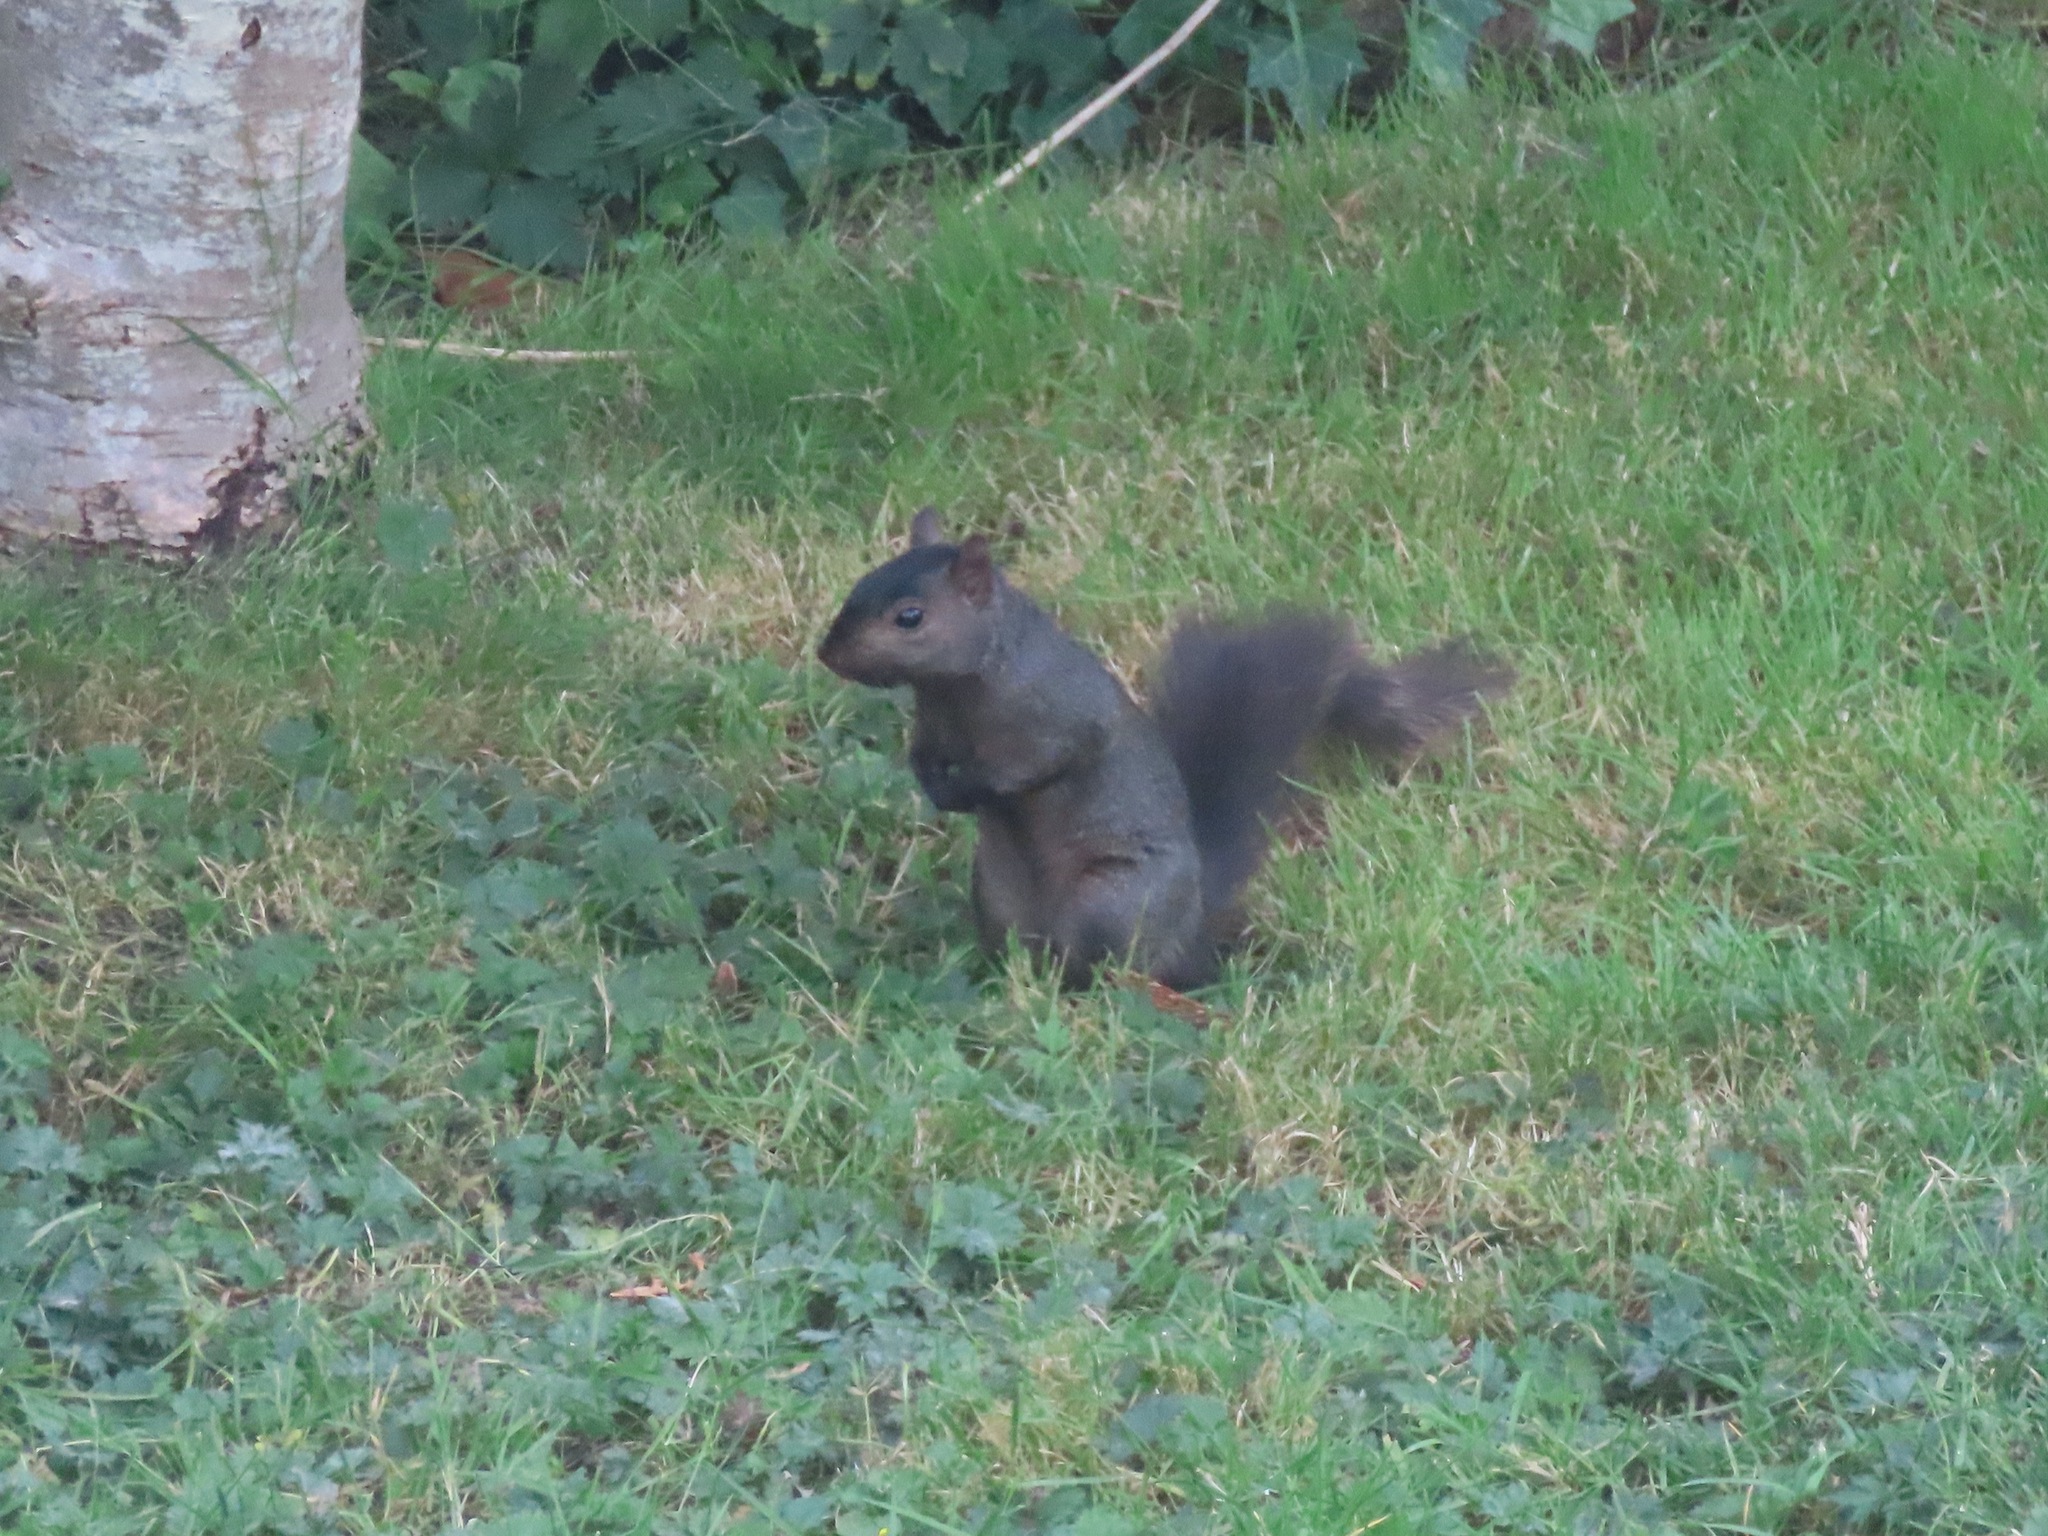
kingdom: Animalia
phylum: Chordata
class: Mammalia
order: Rodentia
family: Sciuridae
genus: Sciurus
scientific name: Sciurus carolinensis
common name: Eastern gray squirrel
